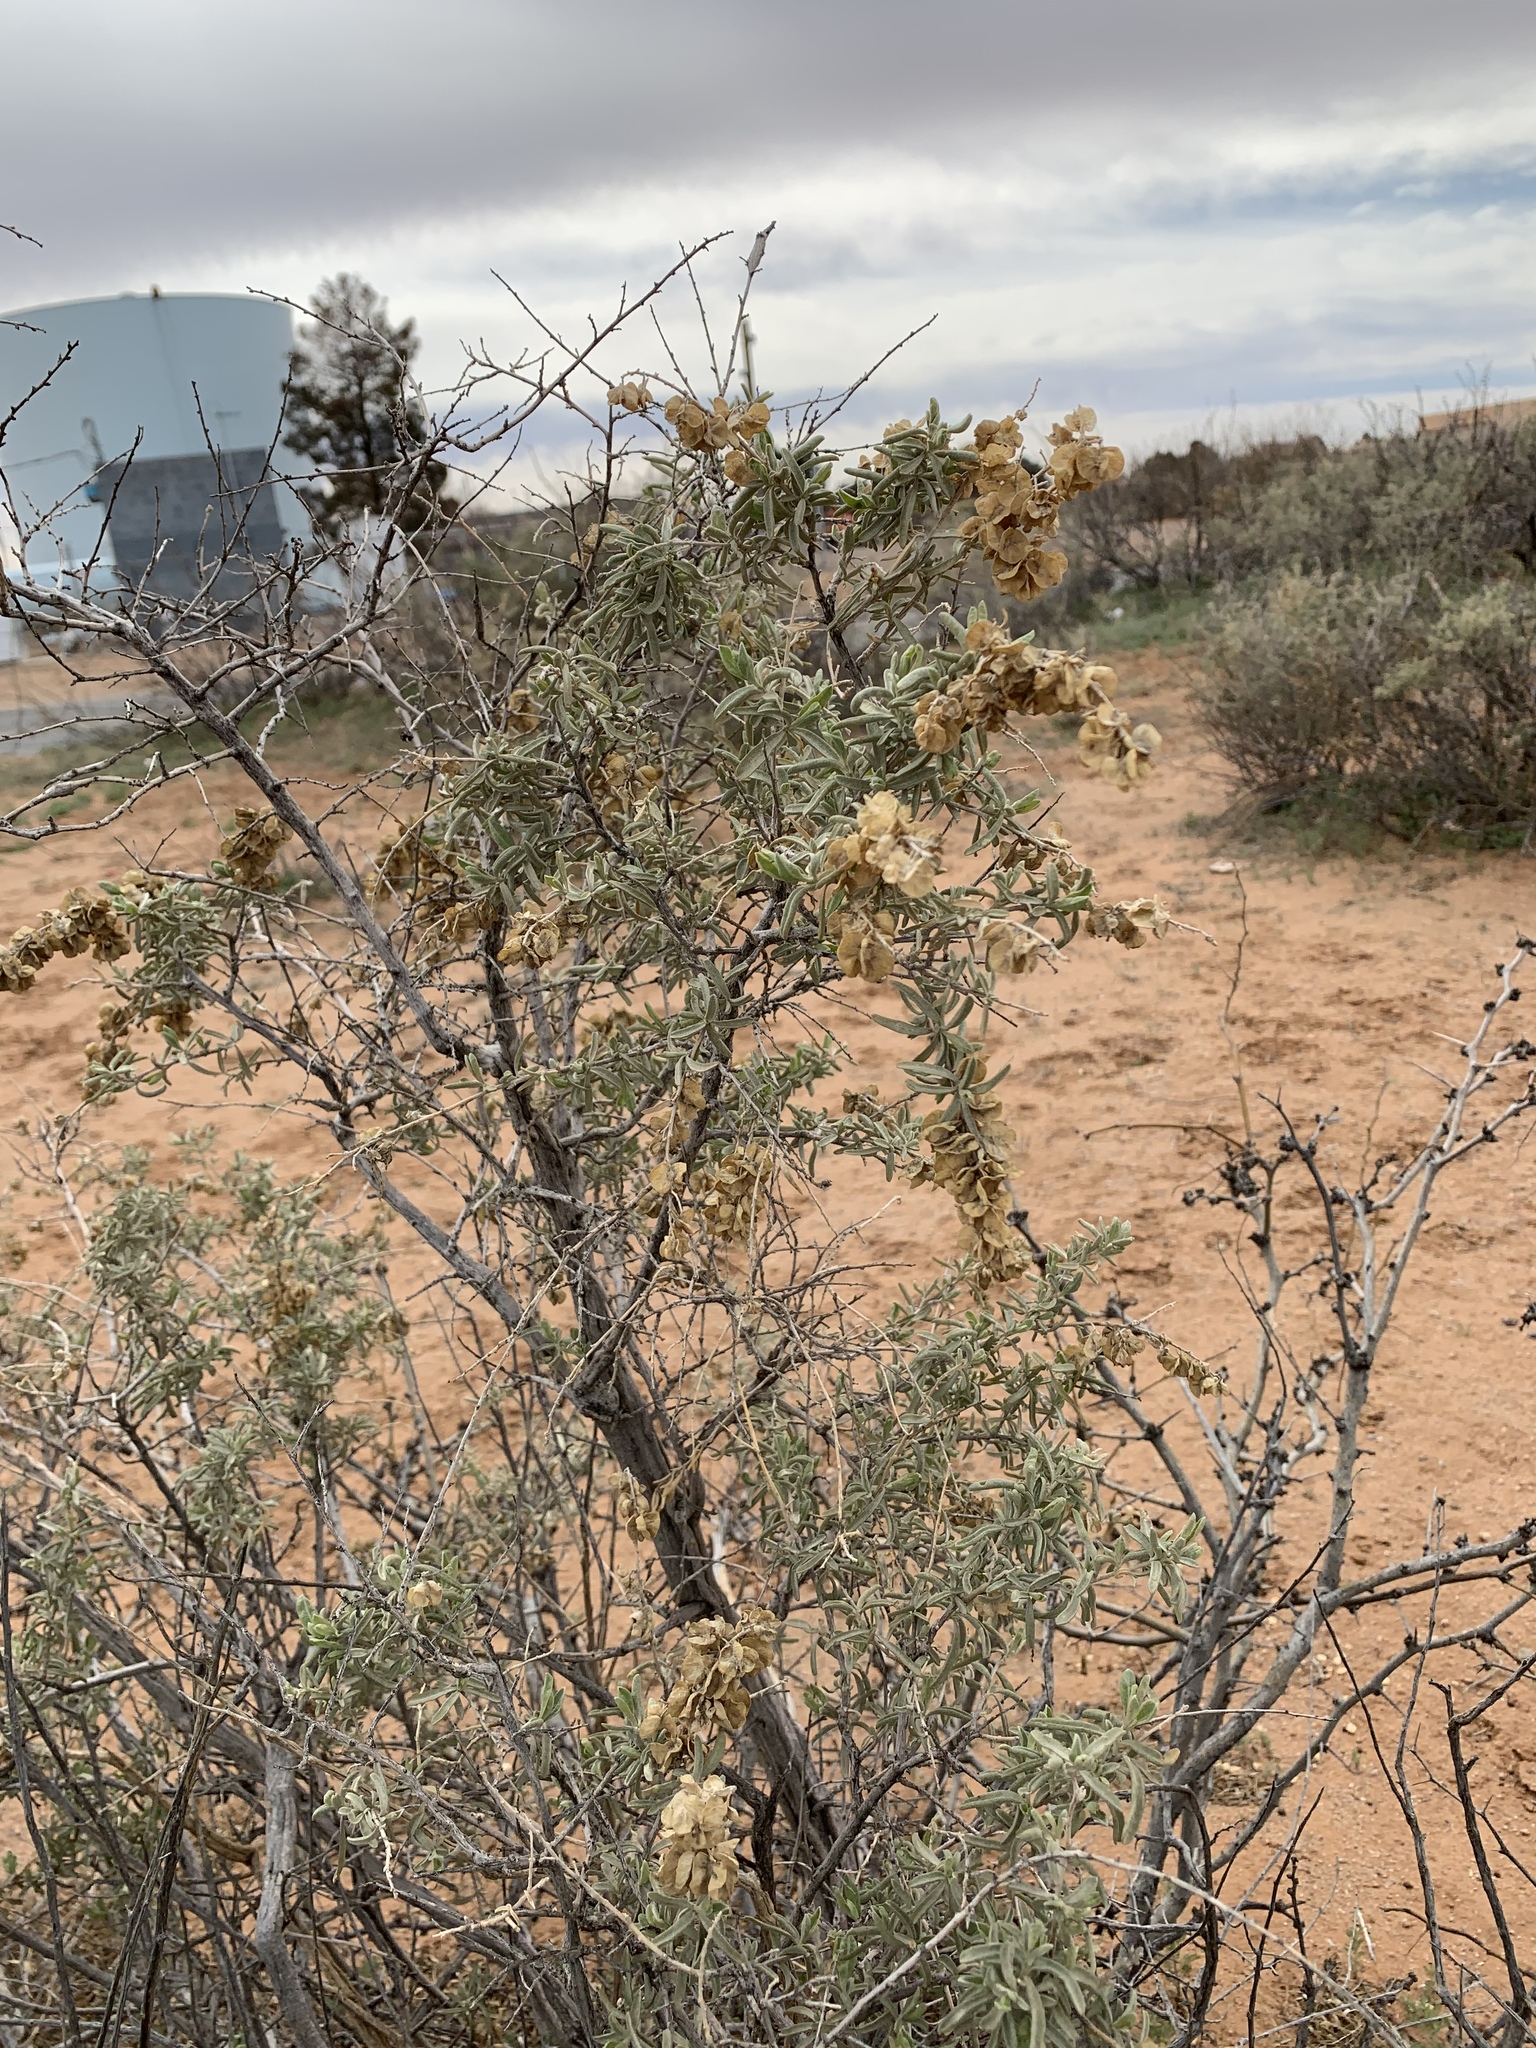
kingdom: Plantae
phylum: Tracheophyta
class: Magnoliopsida
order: Caryophyllales
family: Amaranthaceae
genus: Atriplex
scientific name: Atriplex canescens
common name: Four-wing saltbush
